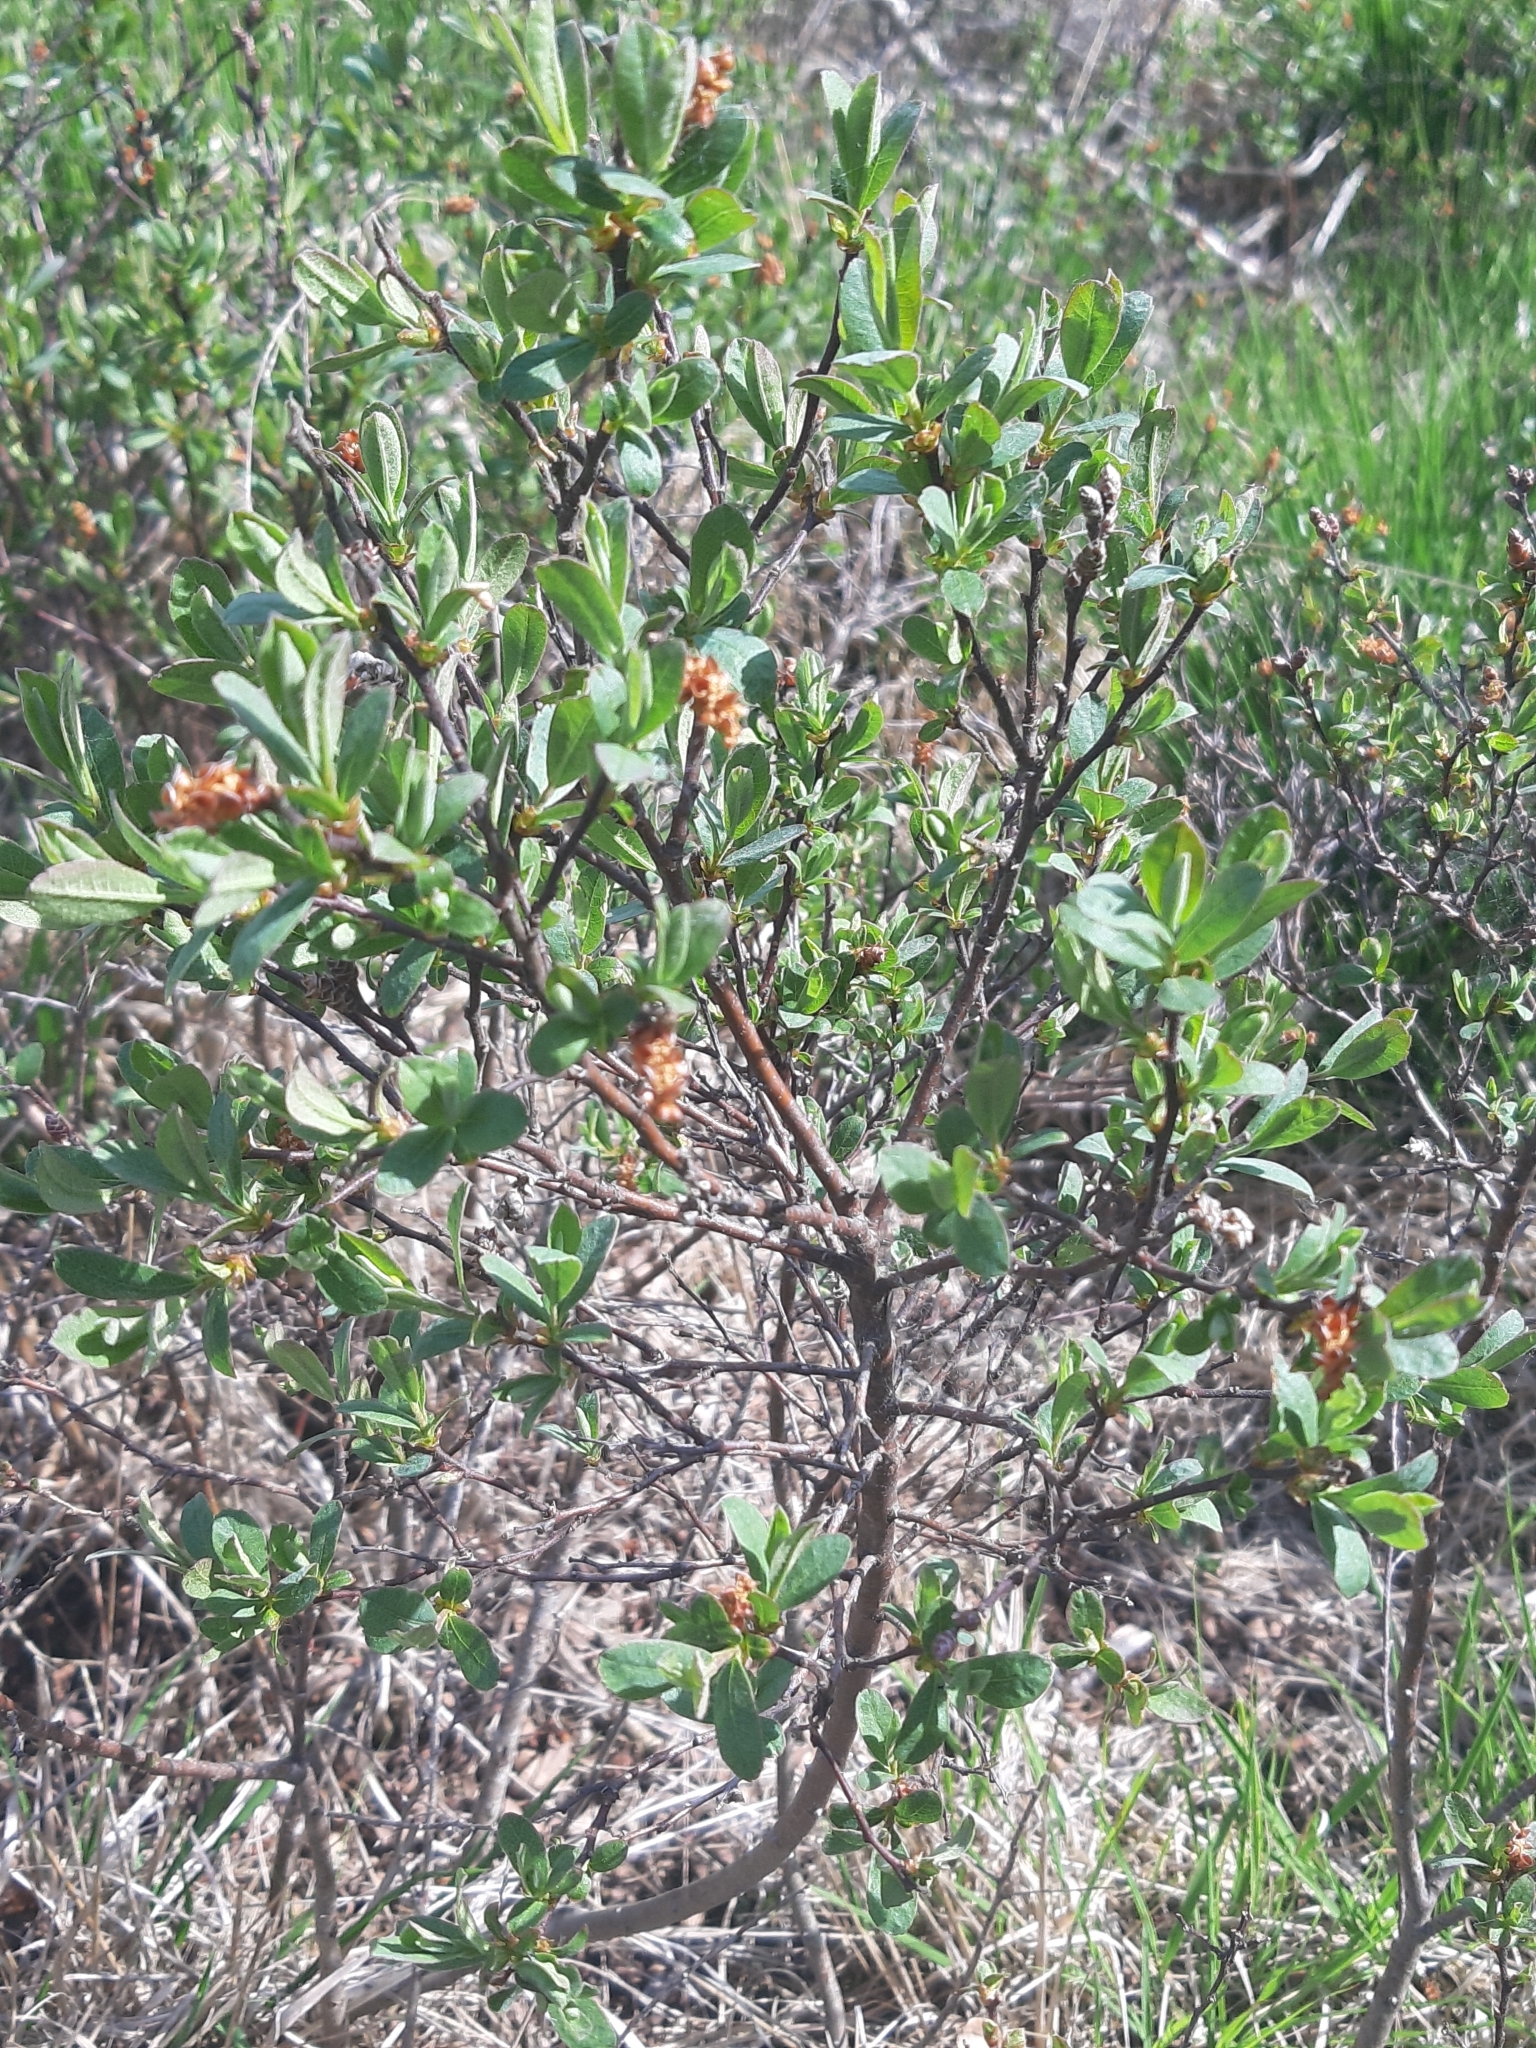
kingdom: Plantae
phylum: Tracheophyta
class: Magnoliopsida
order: Fagales
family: Myricaceae
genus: Myrica
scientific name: Myrica gale
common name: Sweet gale
